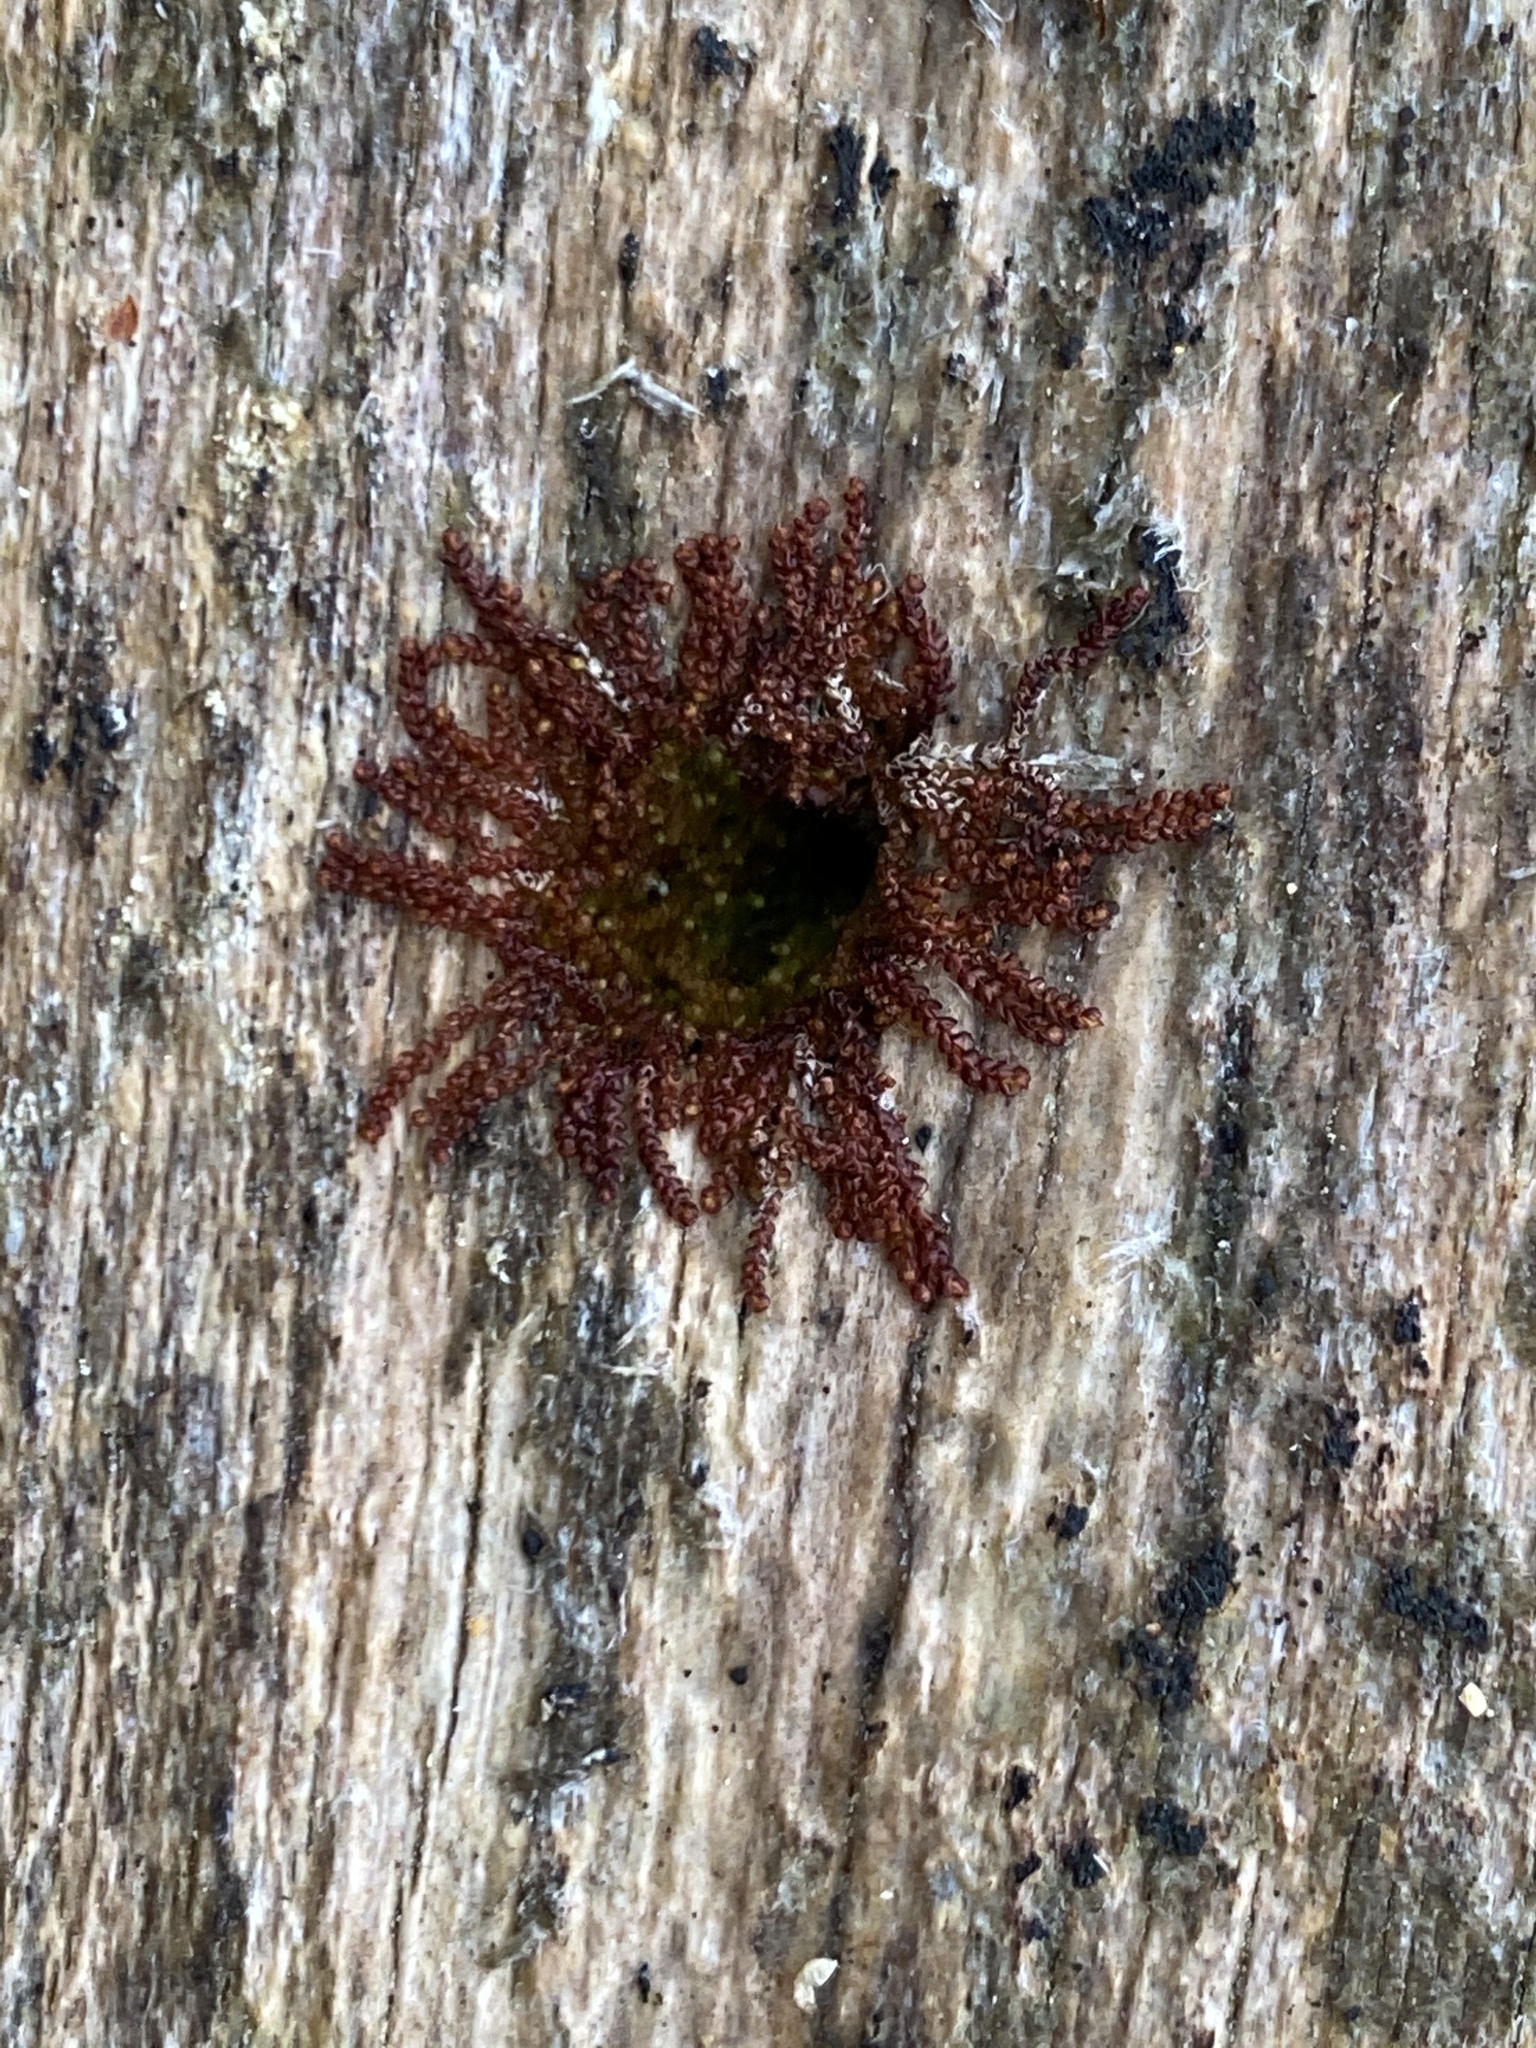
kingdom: Plantae
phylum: Marchantiophyta
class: Jungermanniopsida
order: Jungermanniales
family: Cephaloziaceae
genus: Nowellia
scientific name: Nowellia curvifolia
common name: Wood rustwort
